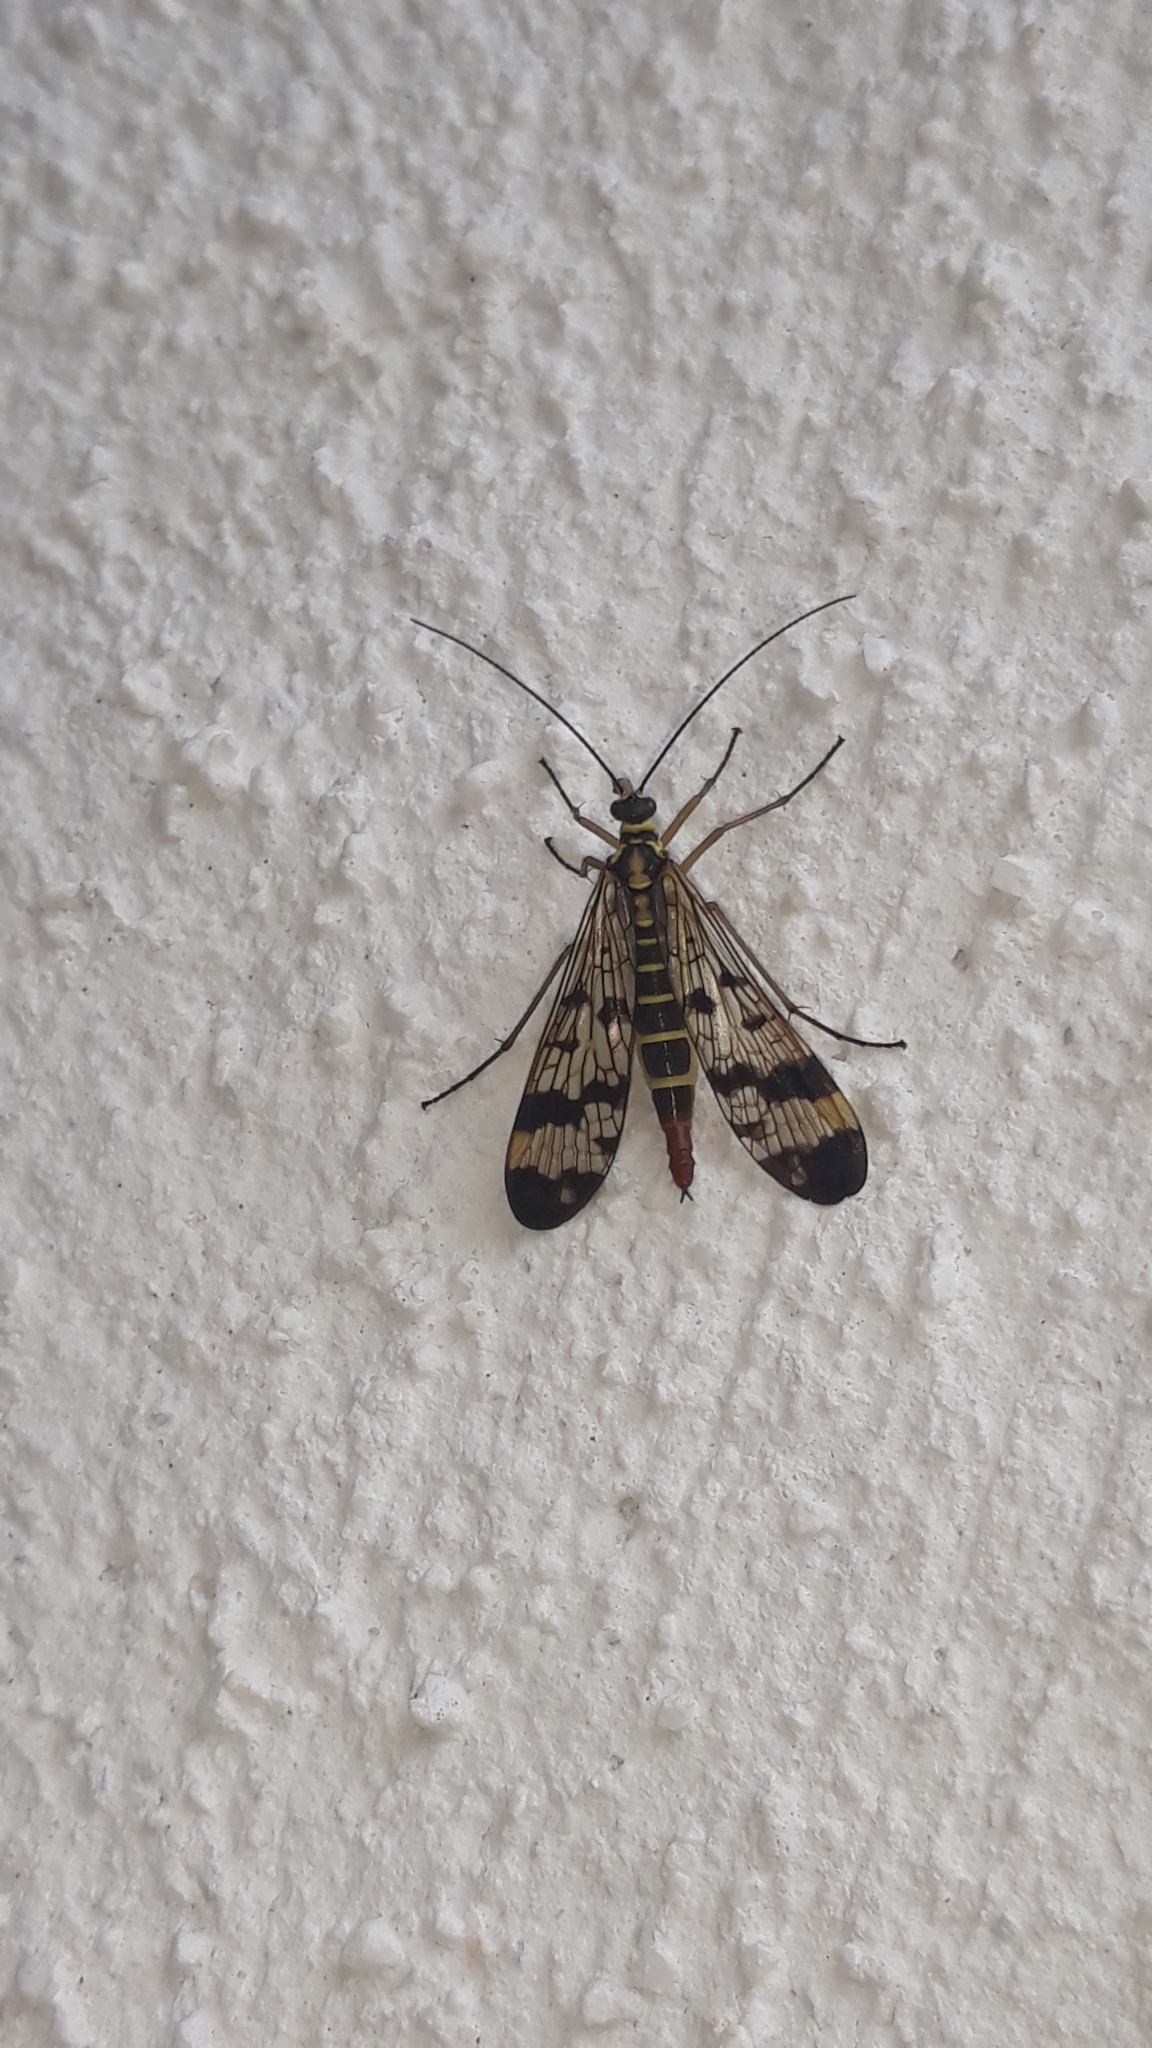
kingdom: Animalia
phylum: Arthropoda
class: Insecta
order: Mecoptera
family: Panorpidae
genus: Panorpa
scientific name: Panorpa communis
